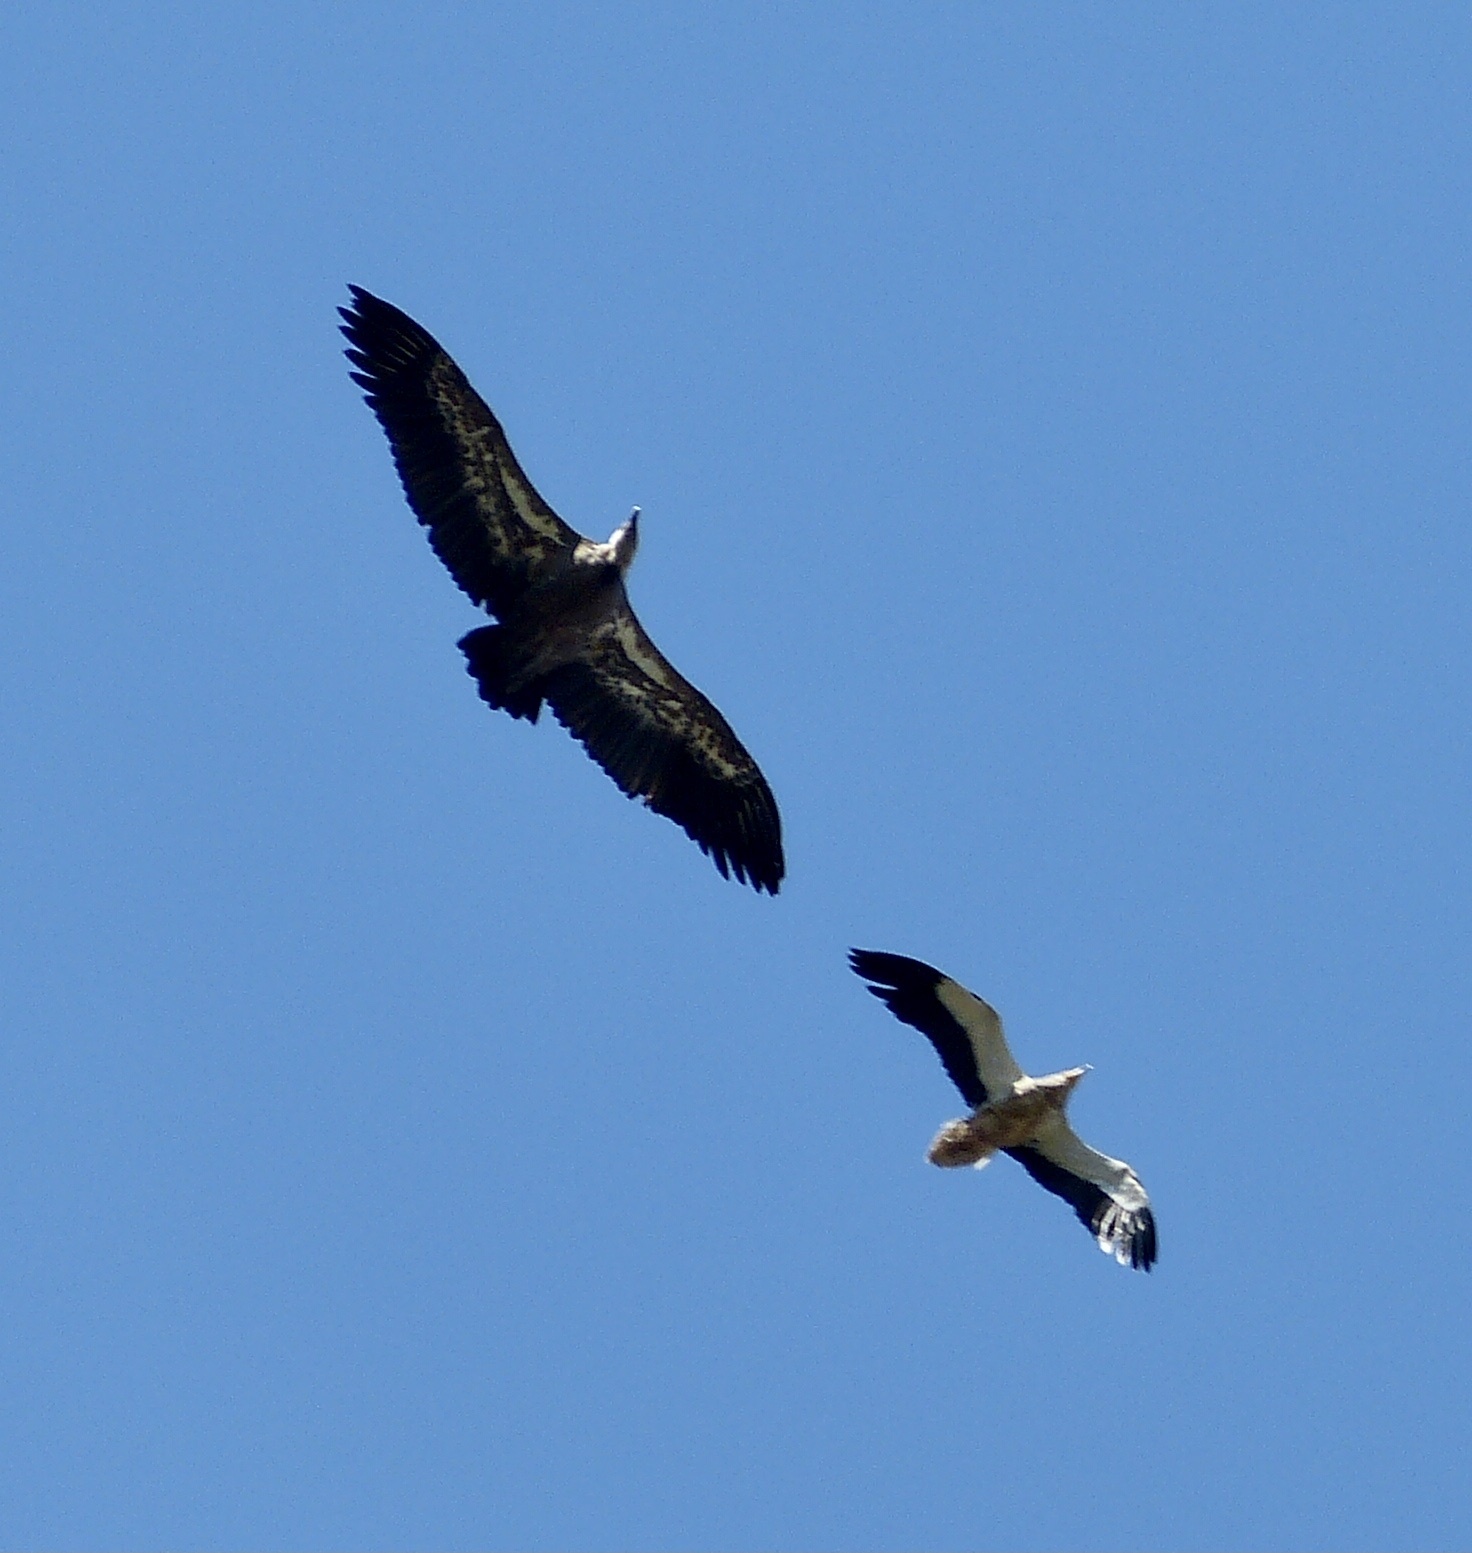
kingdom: Animalia
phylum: Chordata
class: Aves
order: Accipitriformes
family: Accipitridae
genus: Neophron
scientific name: Neophron percnopterus
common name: Egyptian vulture
